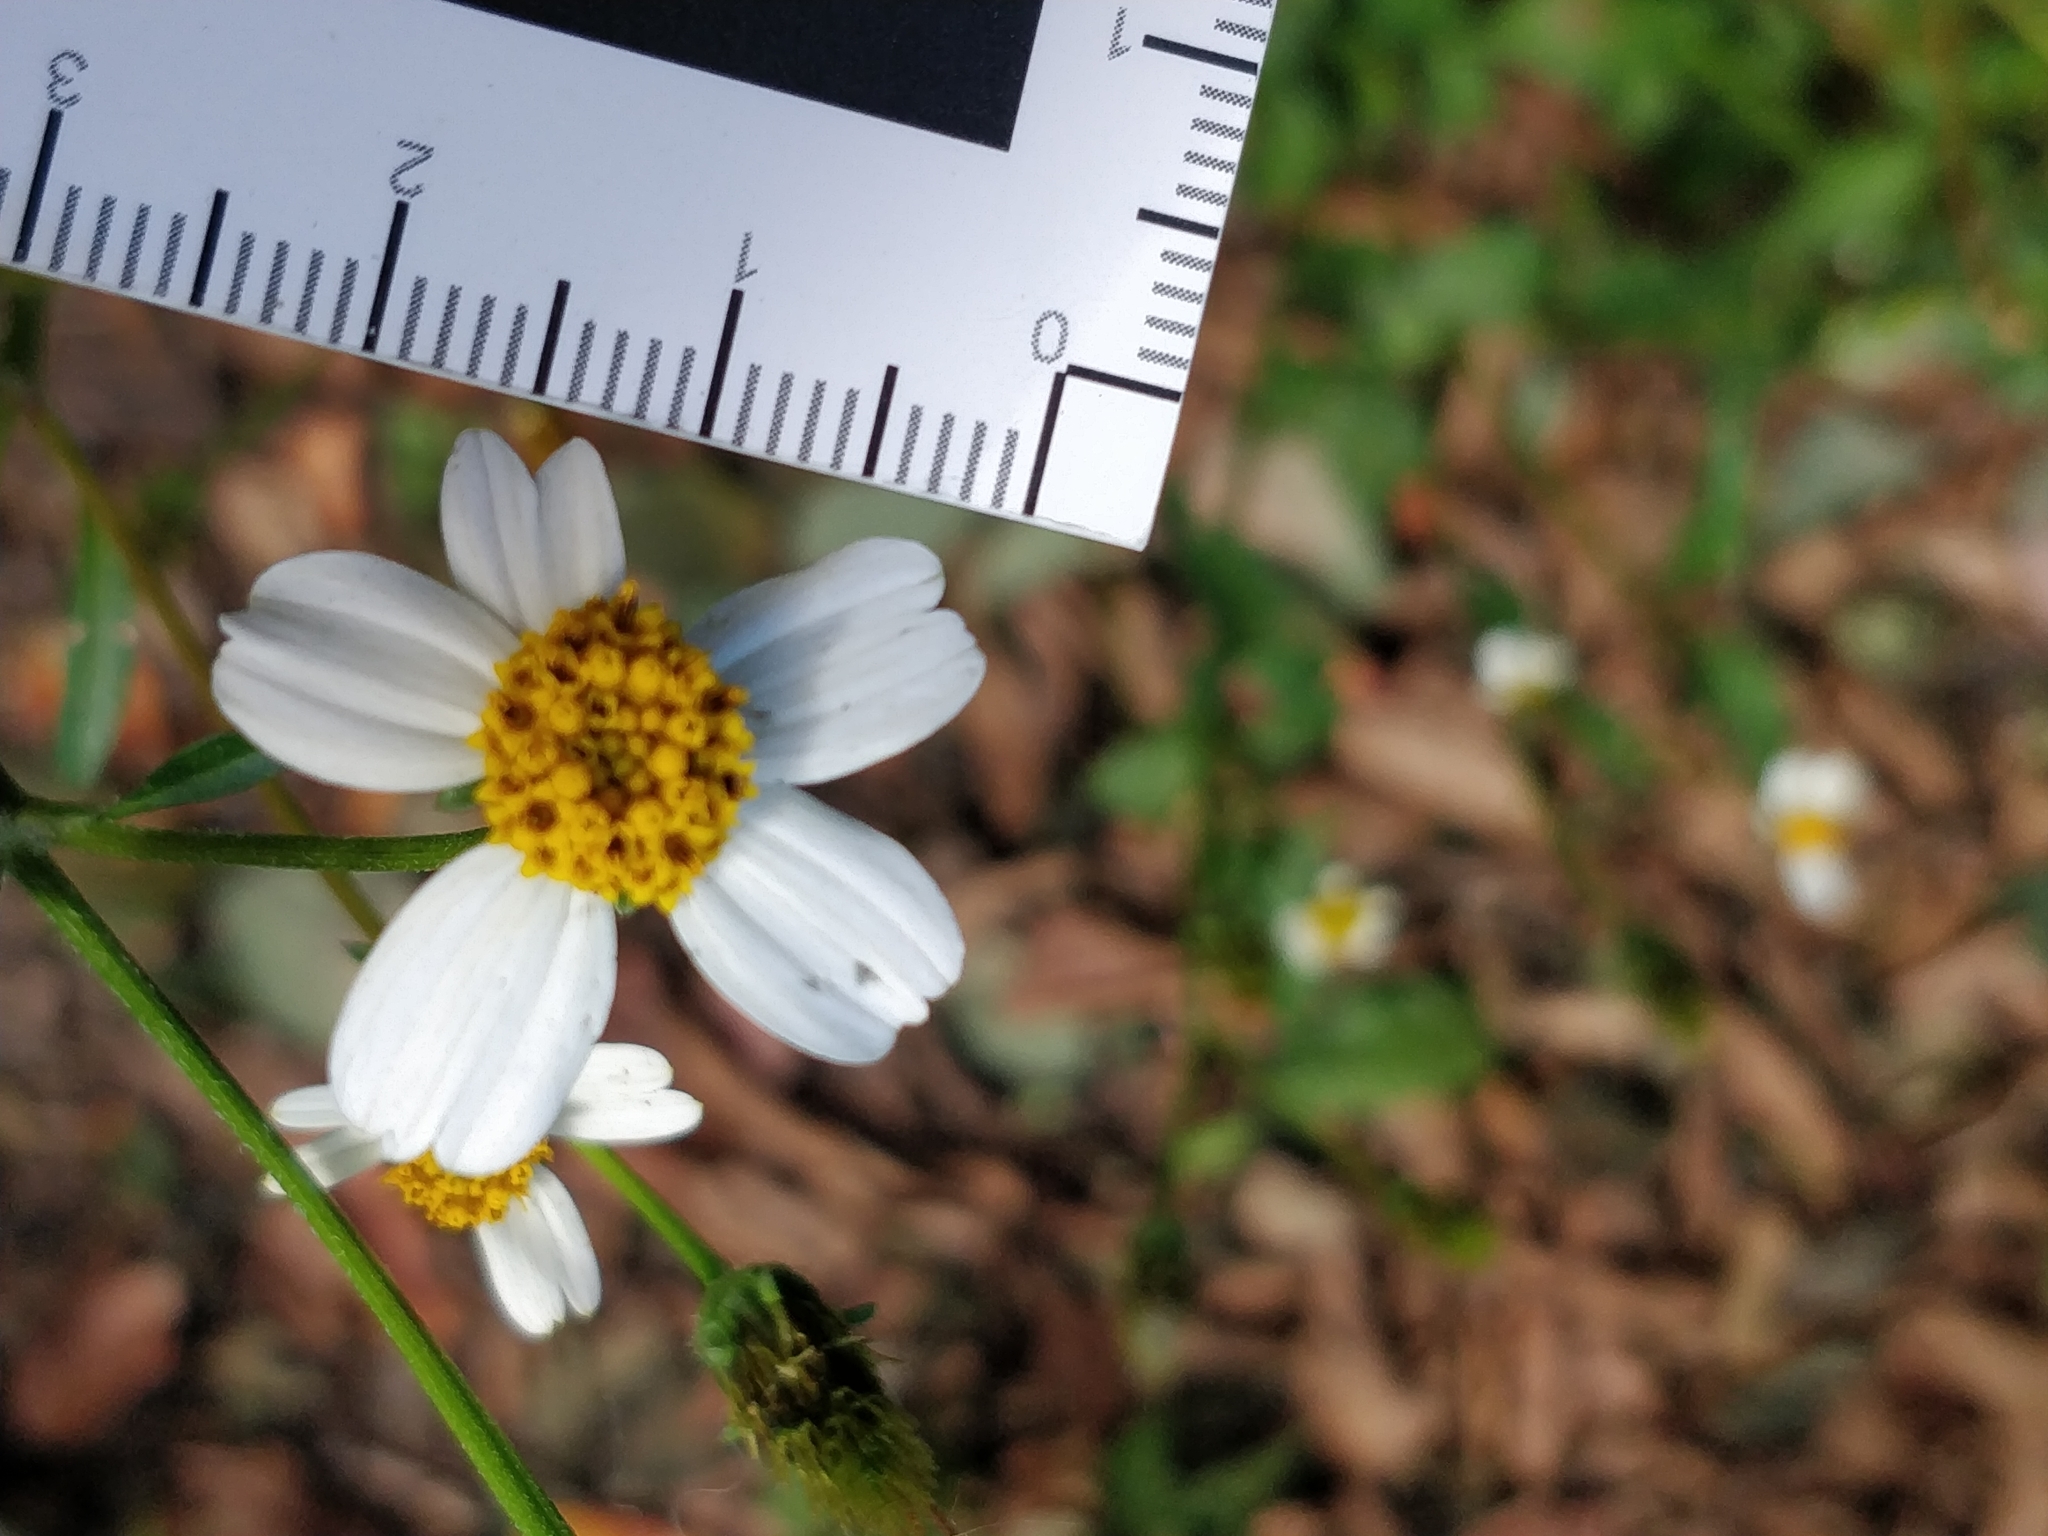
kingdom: Plantae
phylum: Tracheophyta
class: Magnoliopsida
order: Asterales
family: Asteraceae
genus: Bidens
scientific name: Bidens alba
